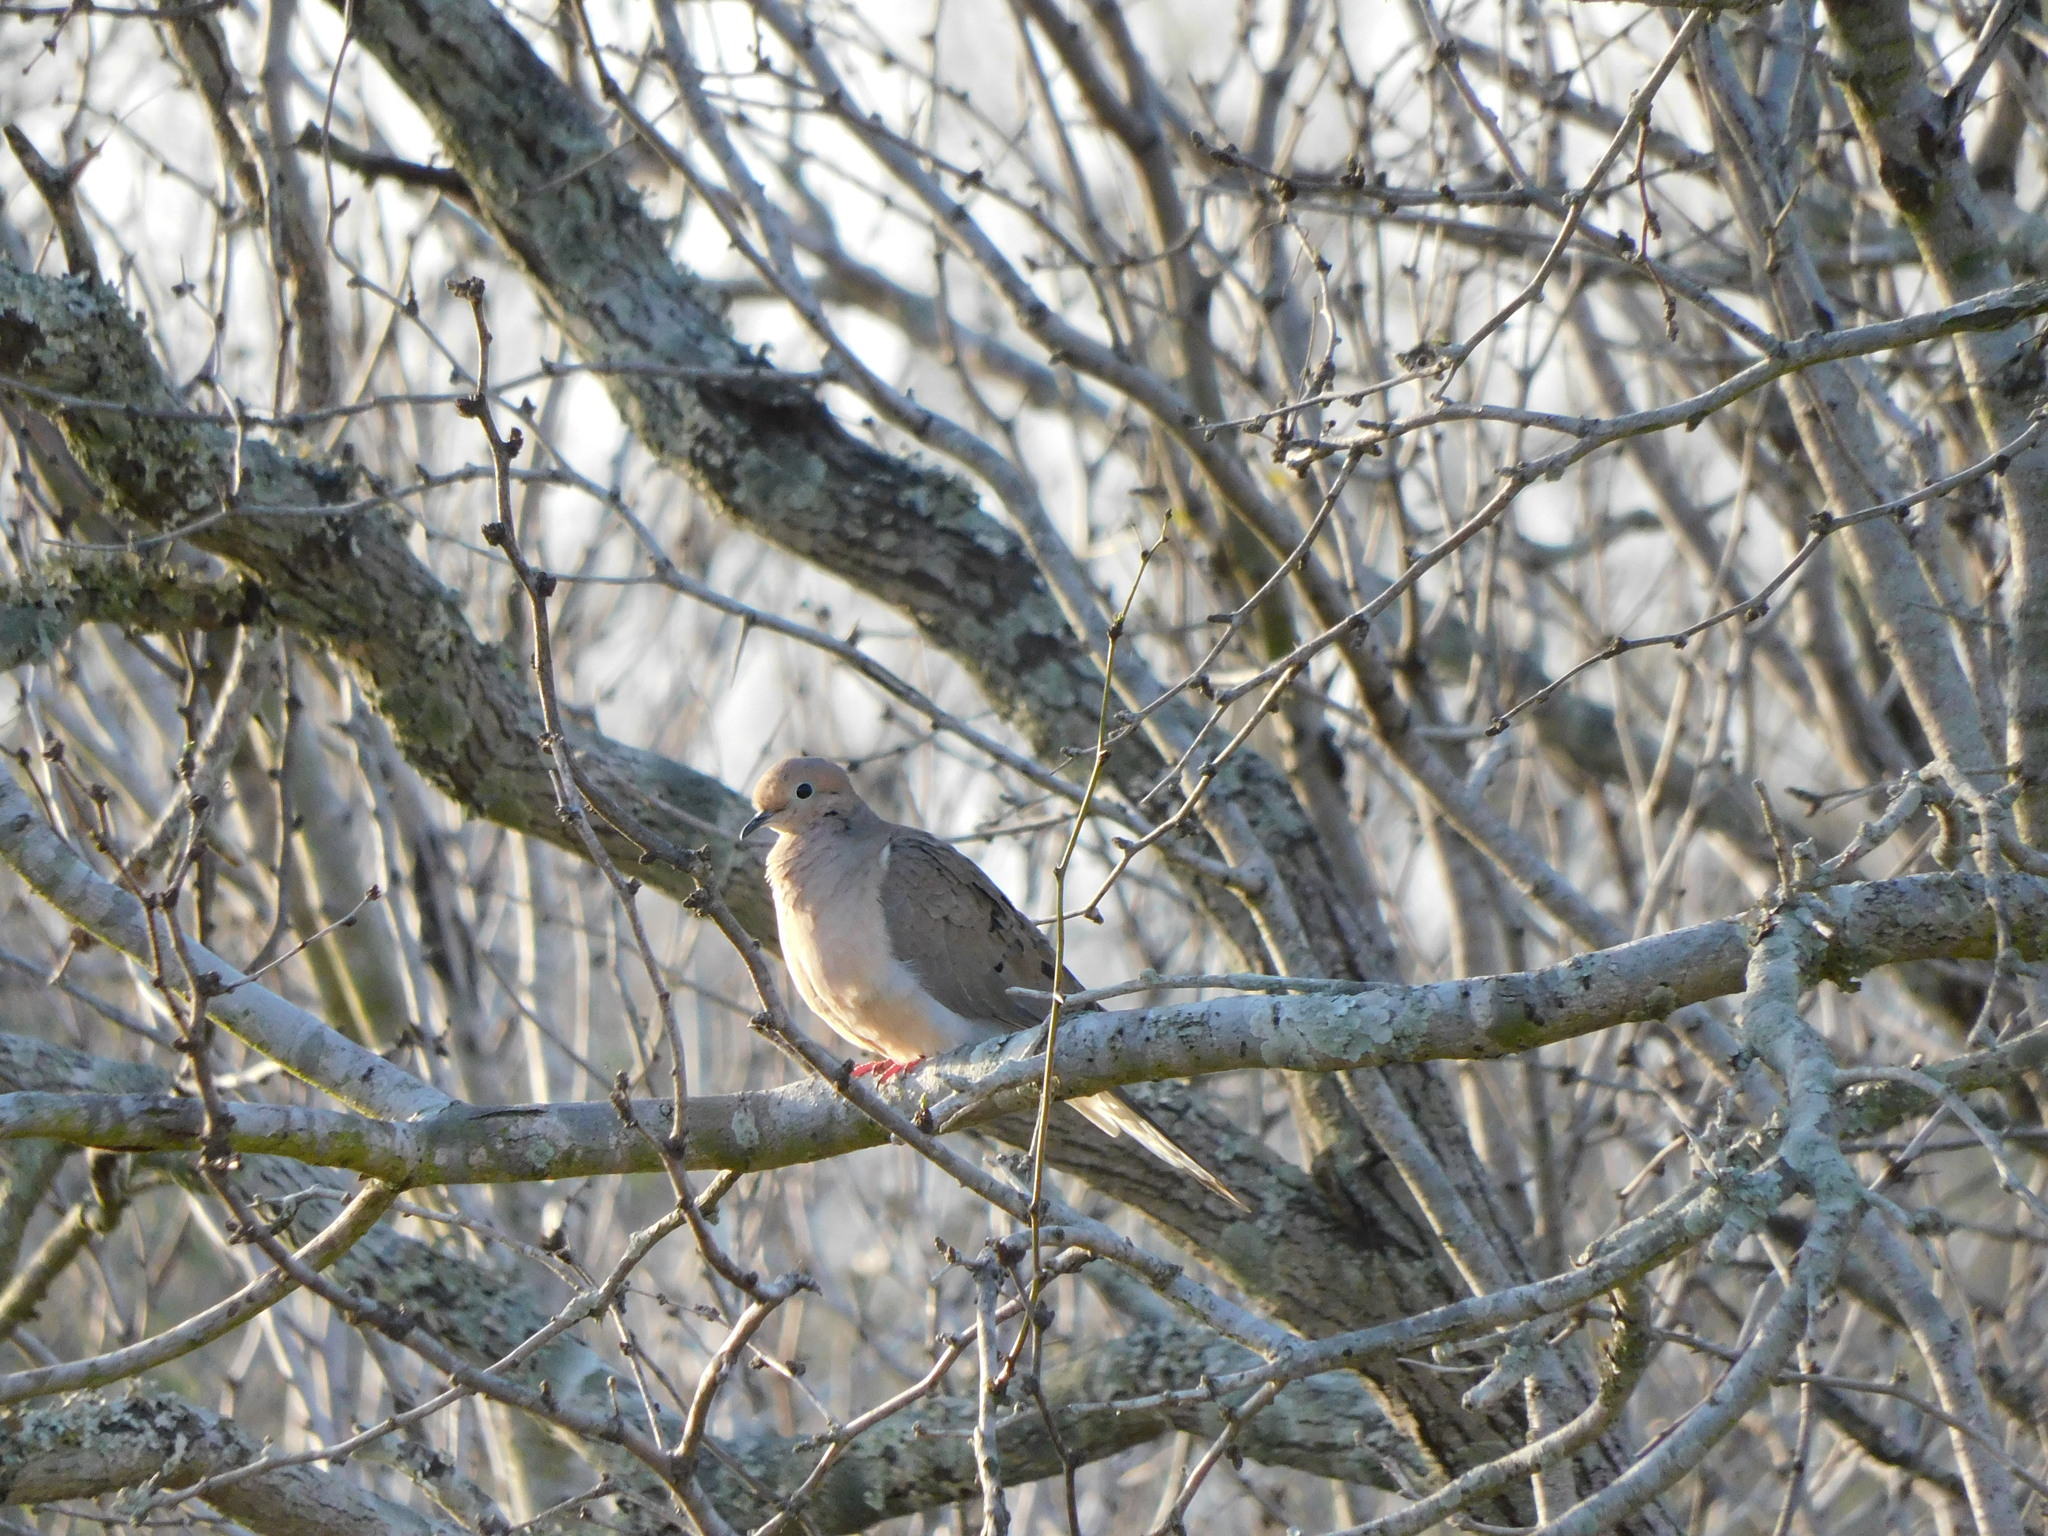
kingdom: Animalia
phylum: Chordata
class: Aves
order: Columbiformes
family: Columbidae
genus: Zenaida
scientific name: Zenaida macroura
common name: Mourning dove
